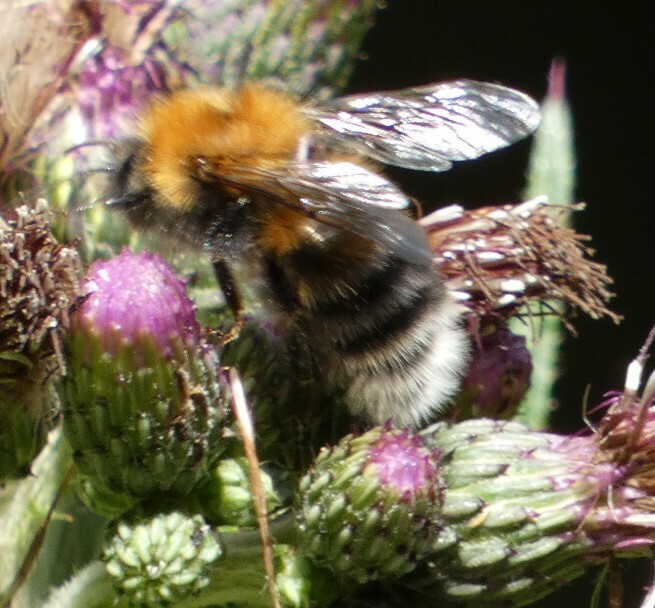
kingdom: Animalia
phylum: Arthropoda
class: Insecta
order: Hymenoptera
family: Apidae
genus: Bombus
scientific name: Bombus hypnorum
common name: New garden bumblebee
